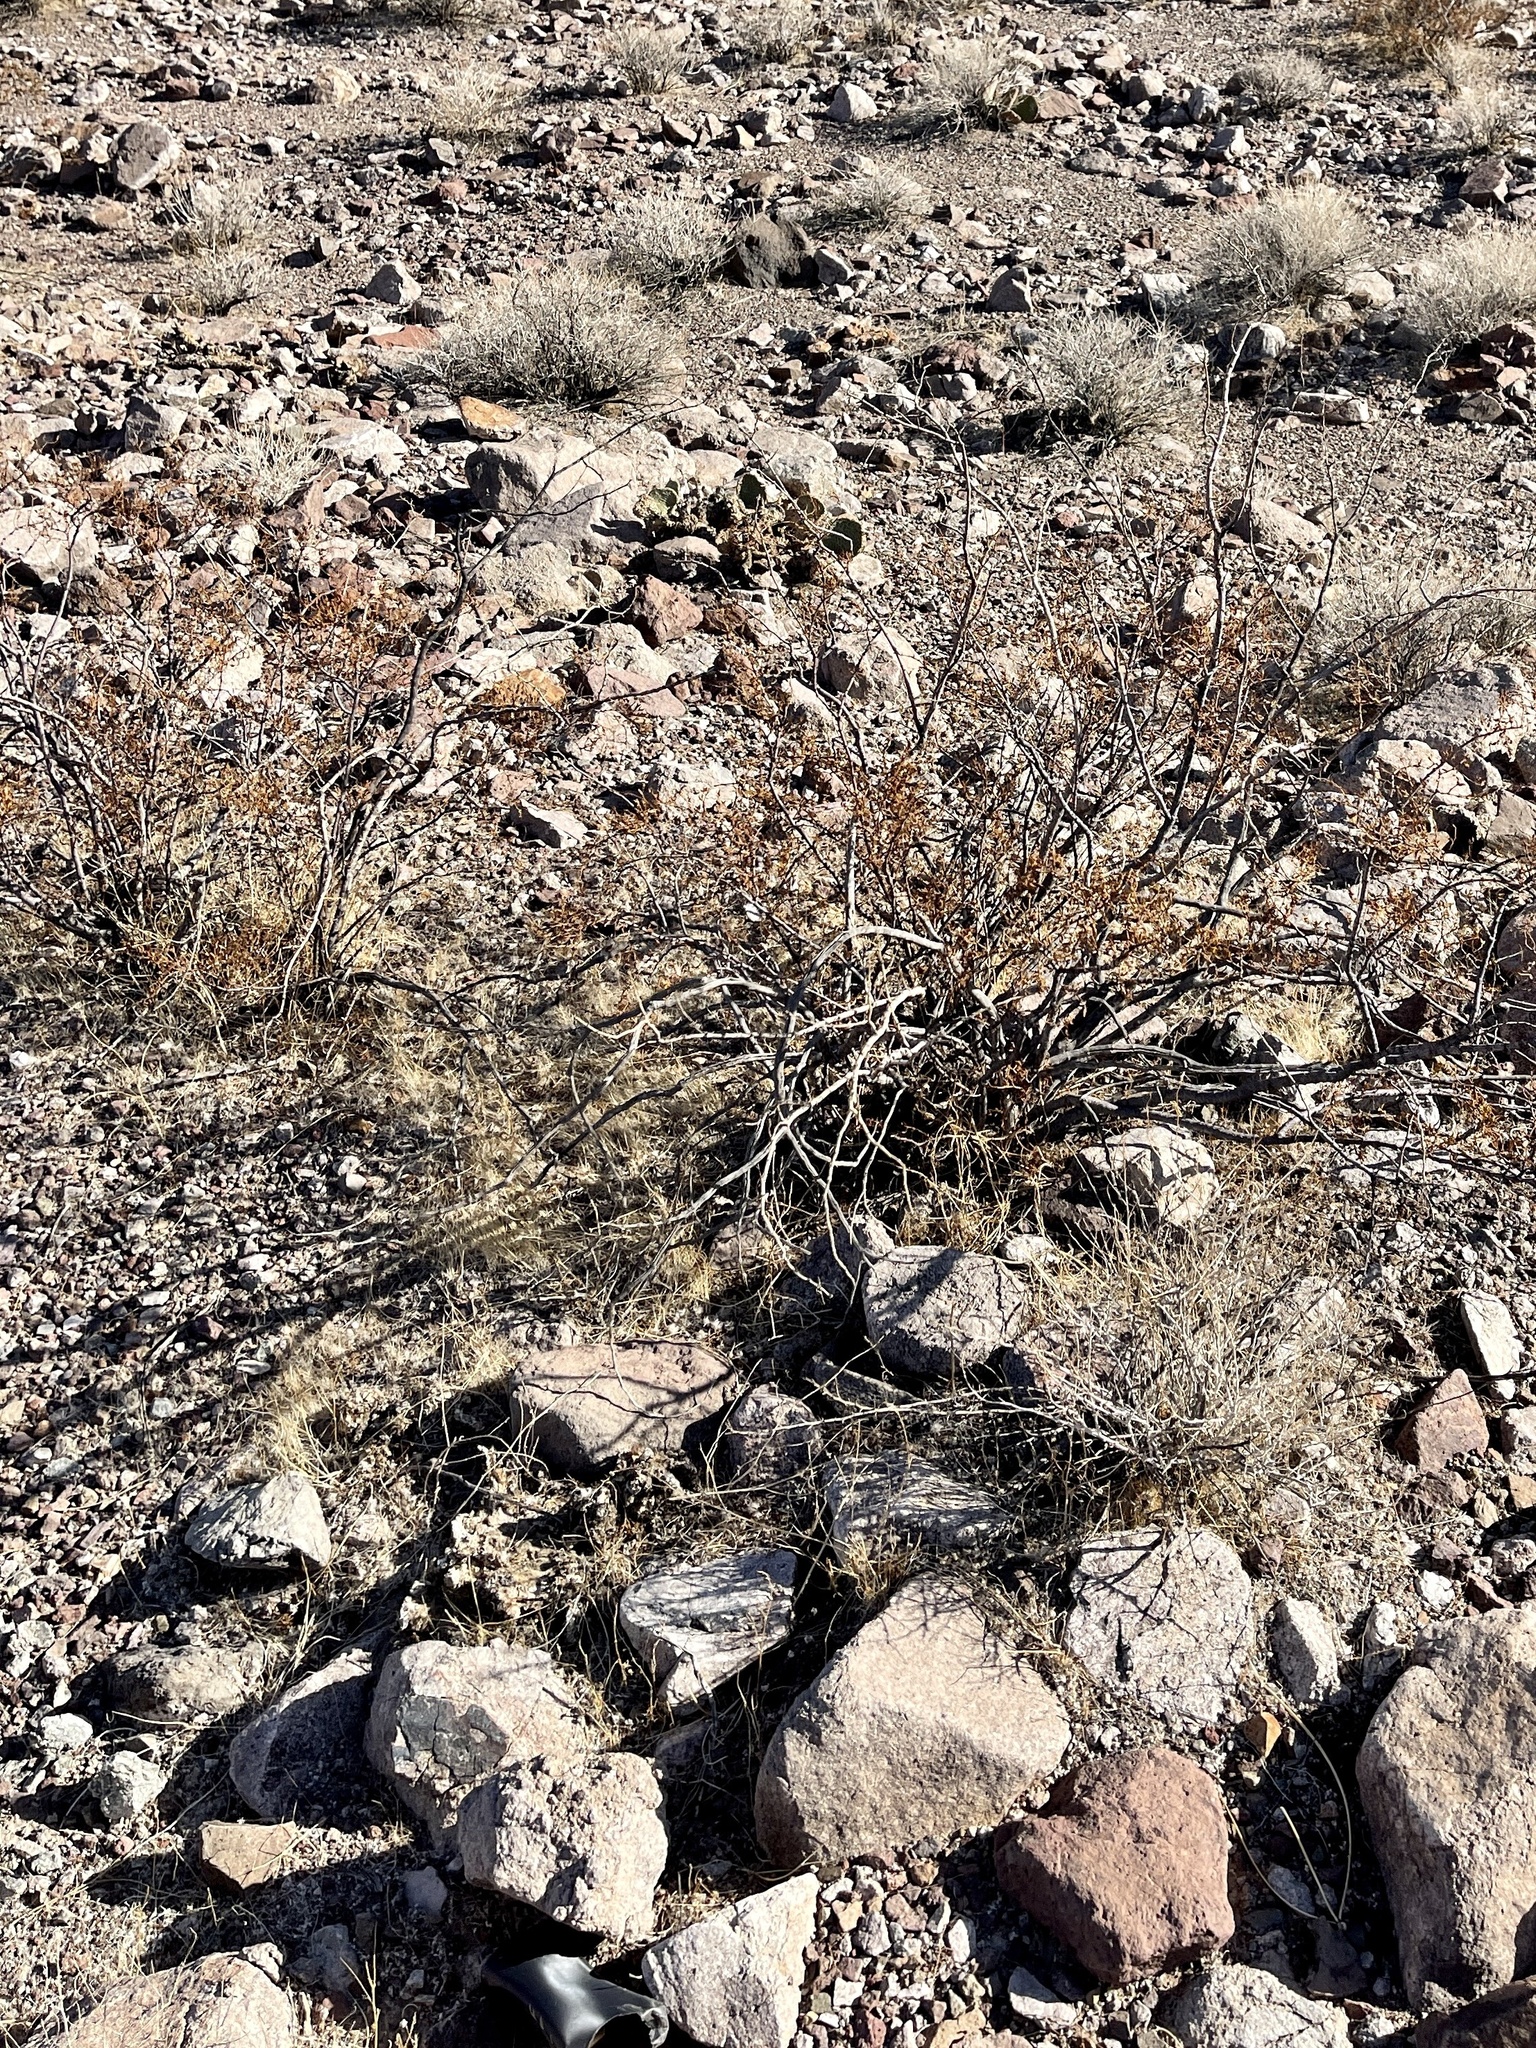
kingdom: Plantae
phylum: Tracheophyta
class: Magnoliopsida
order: Zygophyllales
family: Zygophyllaceae
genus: Larrea
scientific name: Larrea tridentata
